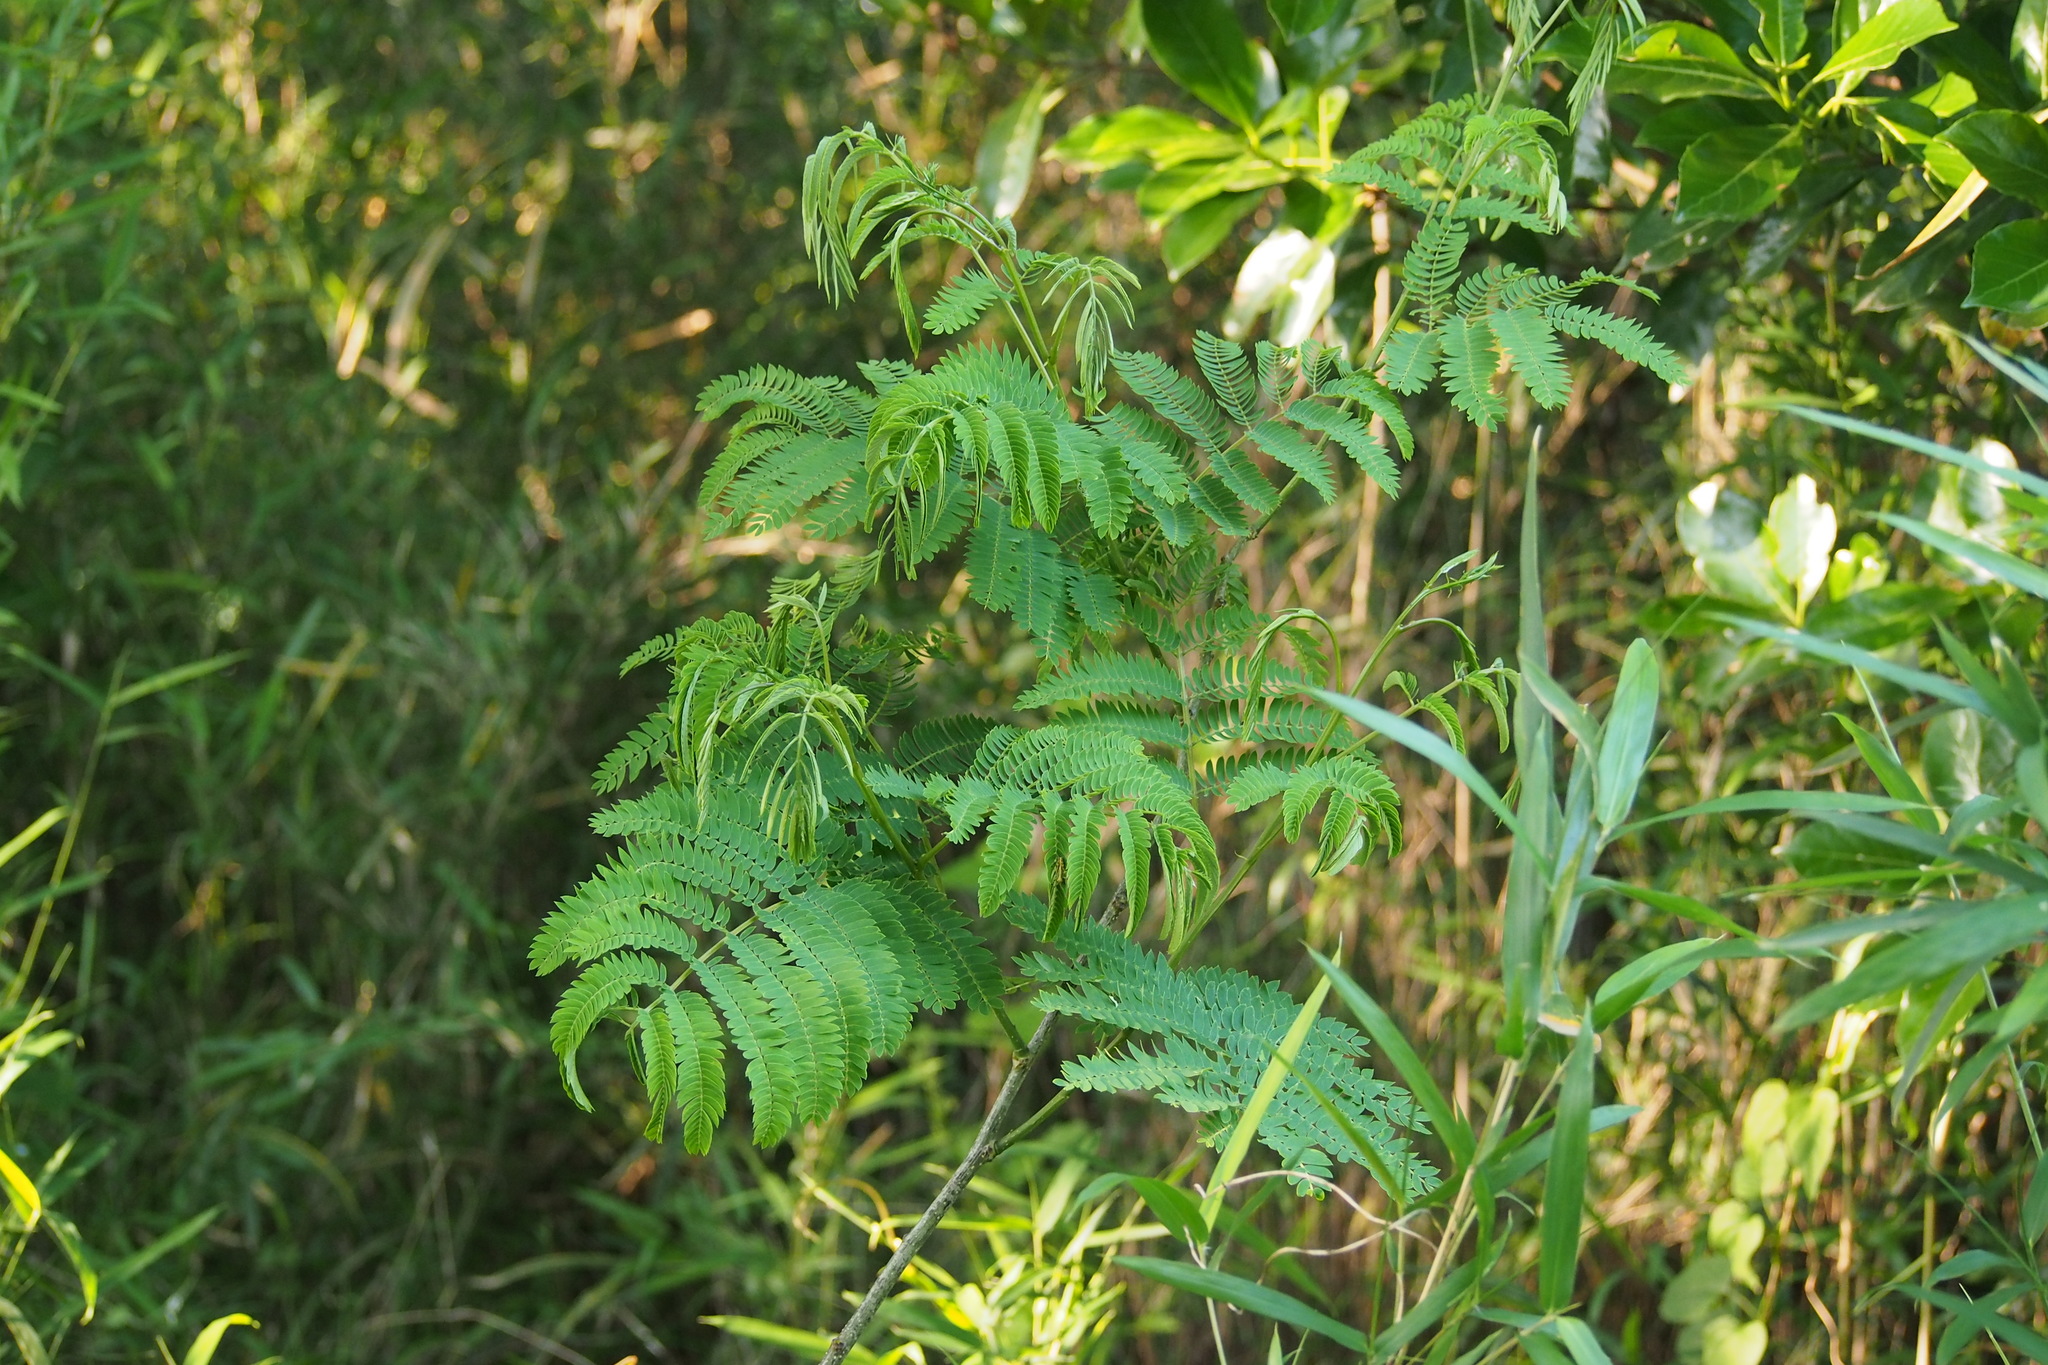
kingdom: Plantae
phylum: Tracheophyta
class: Magnoliopsida
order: Fabales
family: Fabaceae
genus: Albizia
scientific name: Albizia julibrissin
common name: Silktree
